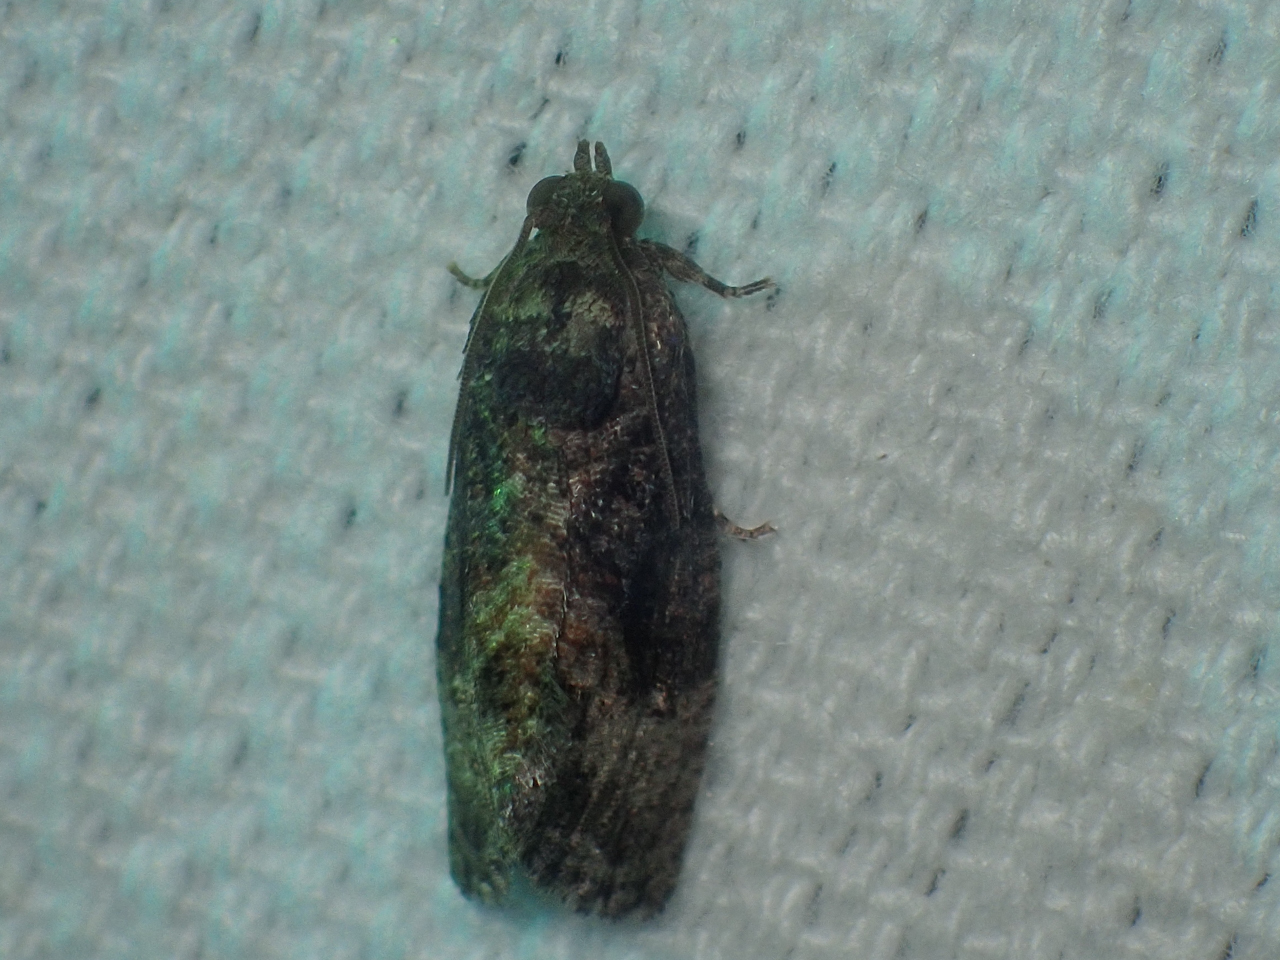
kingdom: Animalia
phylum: Arthropoda
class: Insecta
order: Lepidoptera
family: Tortricidae
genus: Gymnandrosoma
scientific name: Gymnandrosoma punctidiscanum
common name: Dotted ecdytolopha moth
